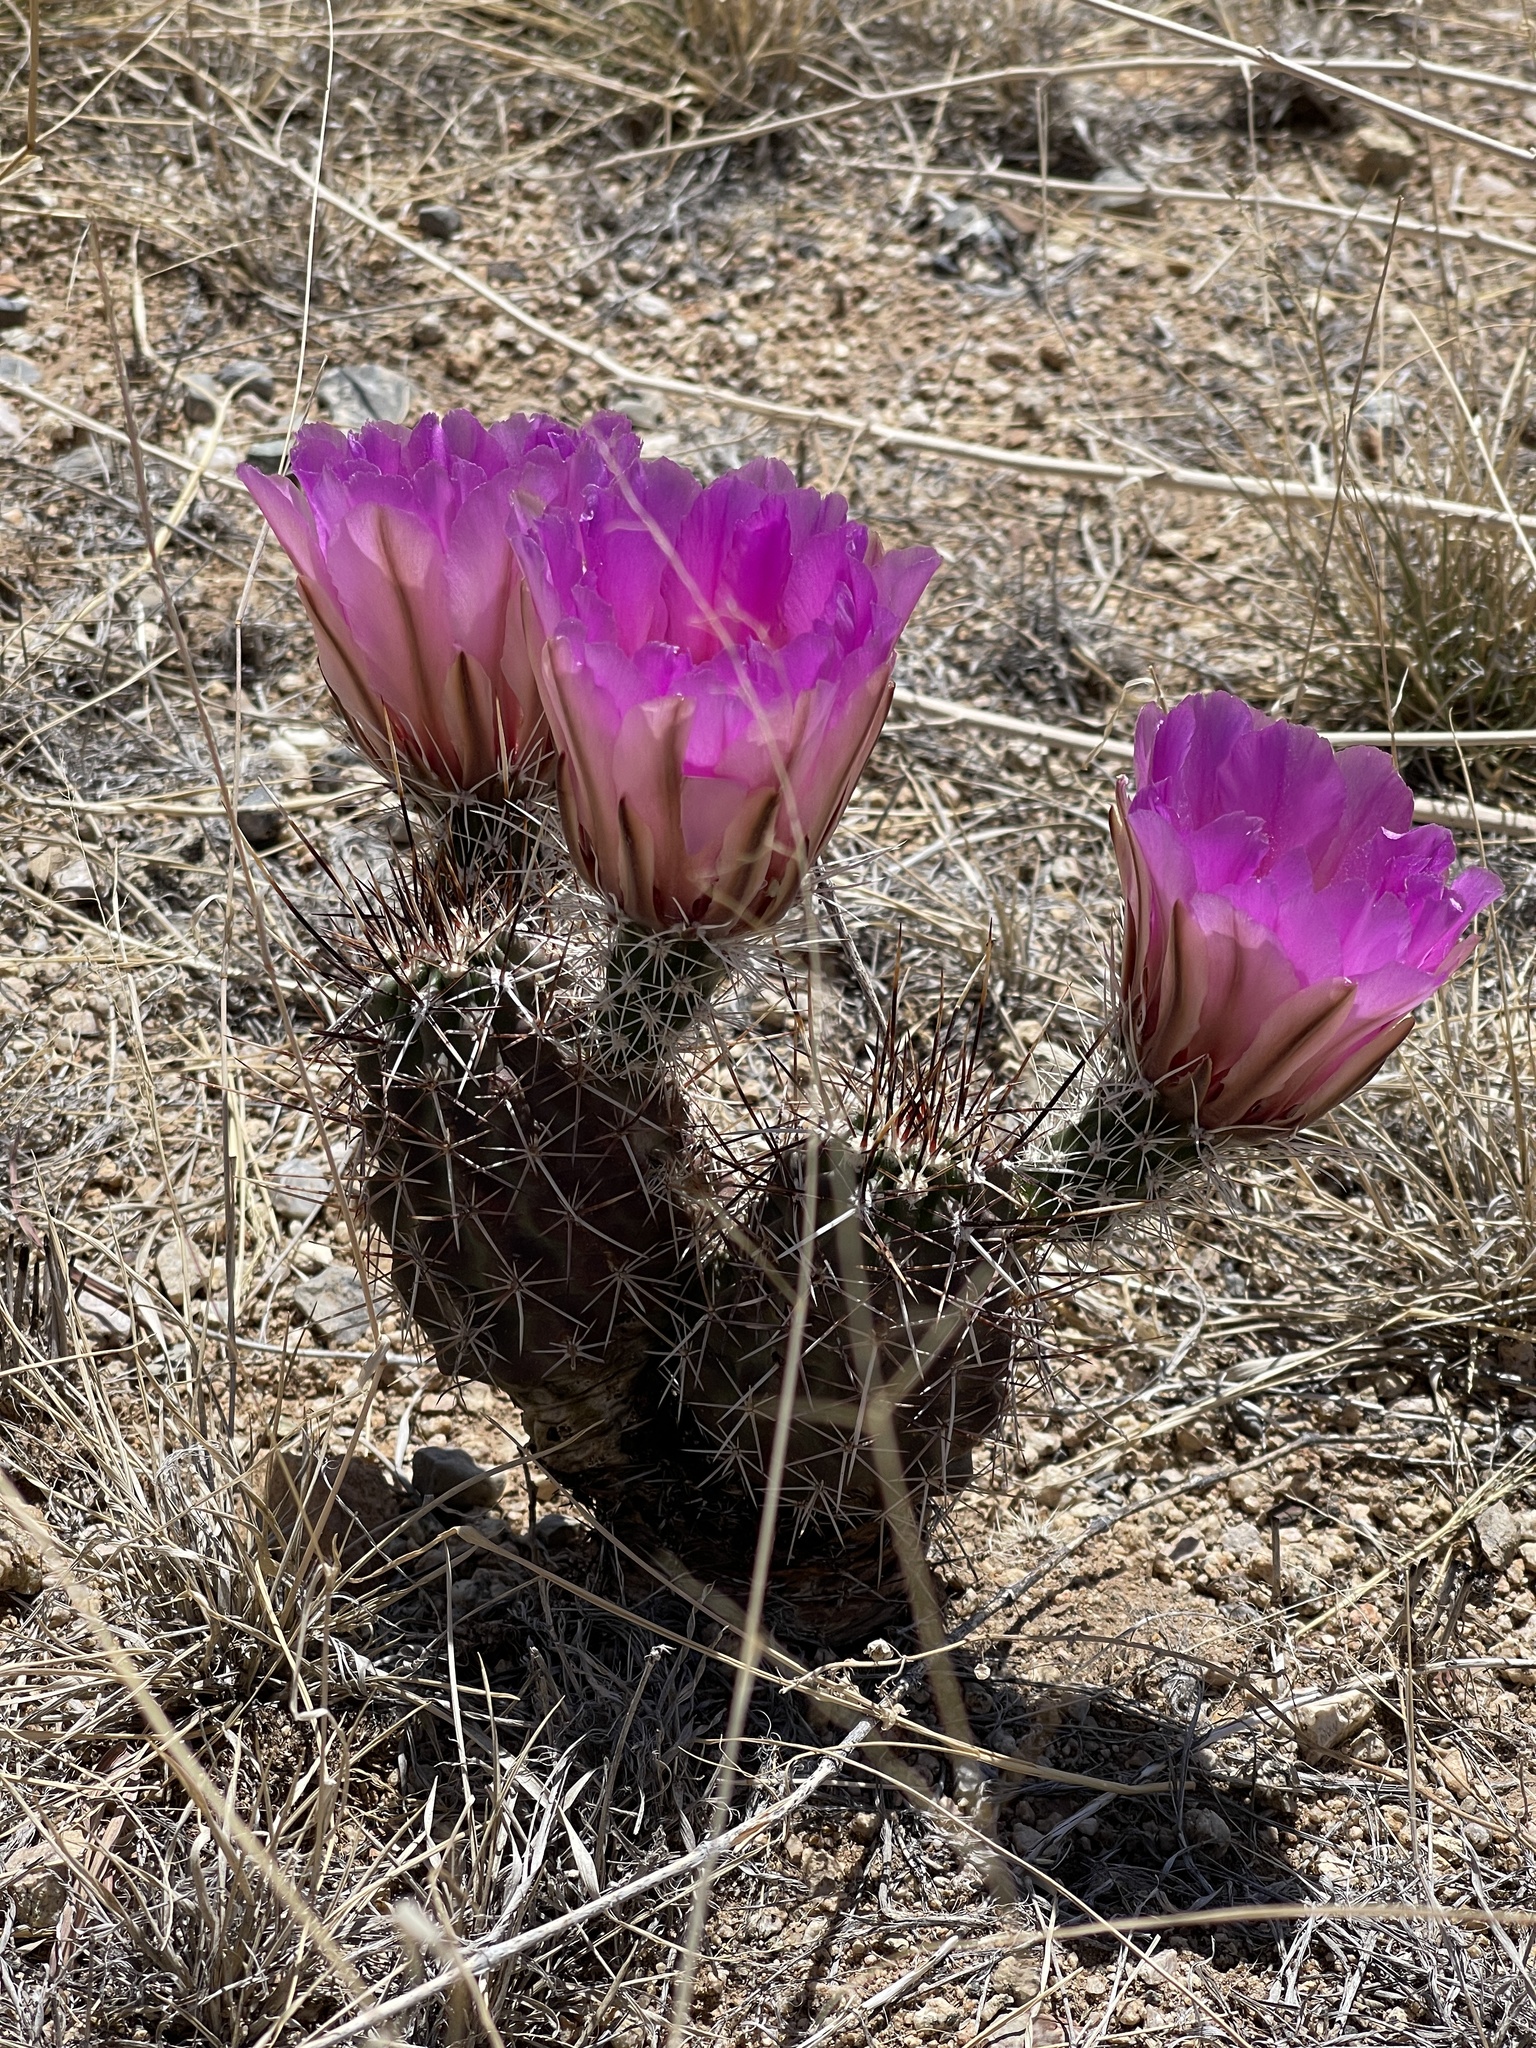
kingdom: Plantae
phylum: Tracheophyta
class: Magnoliopsida
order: Caryophyllales
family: Cactaceae
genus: Echinocereus
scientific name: Echinocereus fendleri
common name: Fendler's hedgehog cactus
